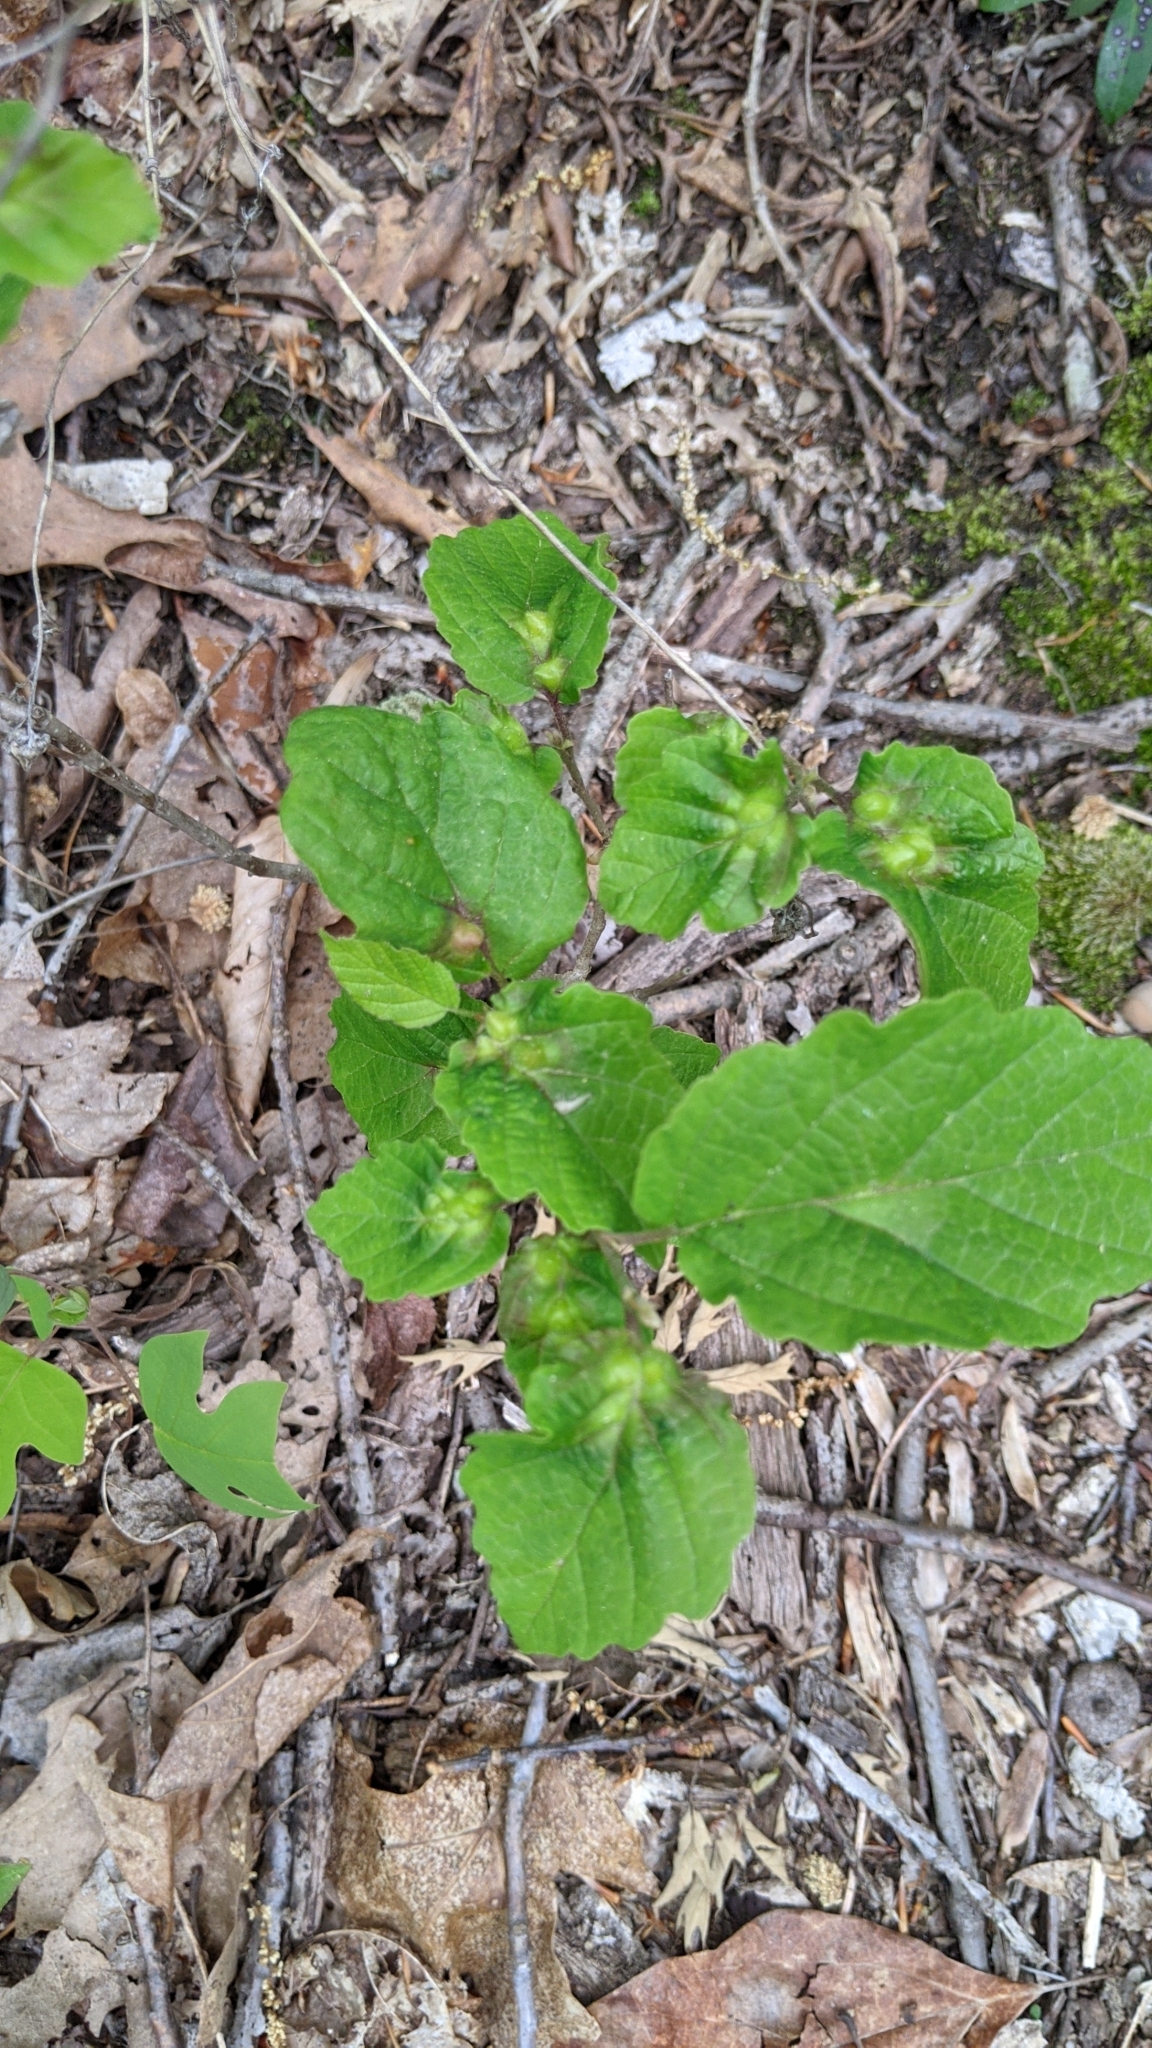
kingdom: Animalia
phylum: Arthropoda
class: Insecta
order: Hemiptera
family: Aphididae
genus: Hormaphis
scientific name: Hormaphis hamamelidis
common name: Witch-hazel cone gall aphid
